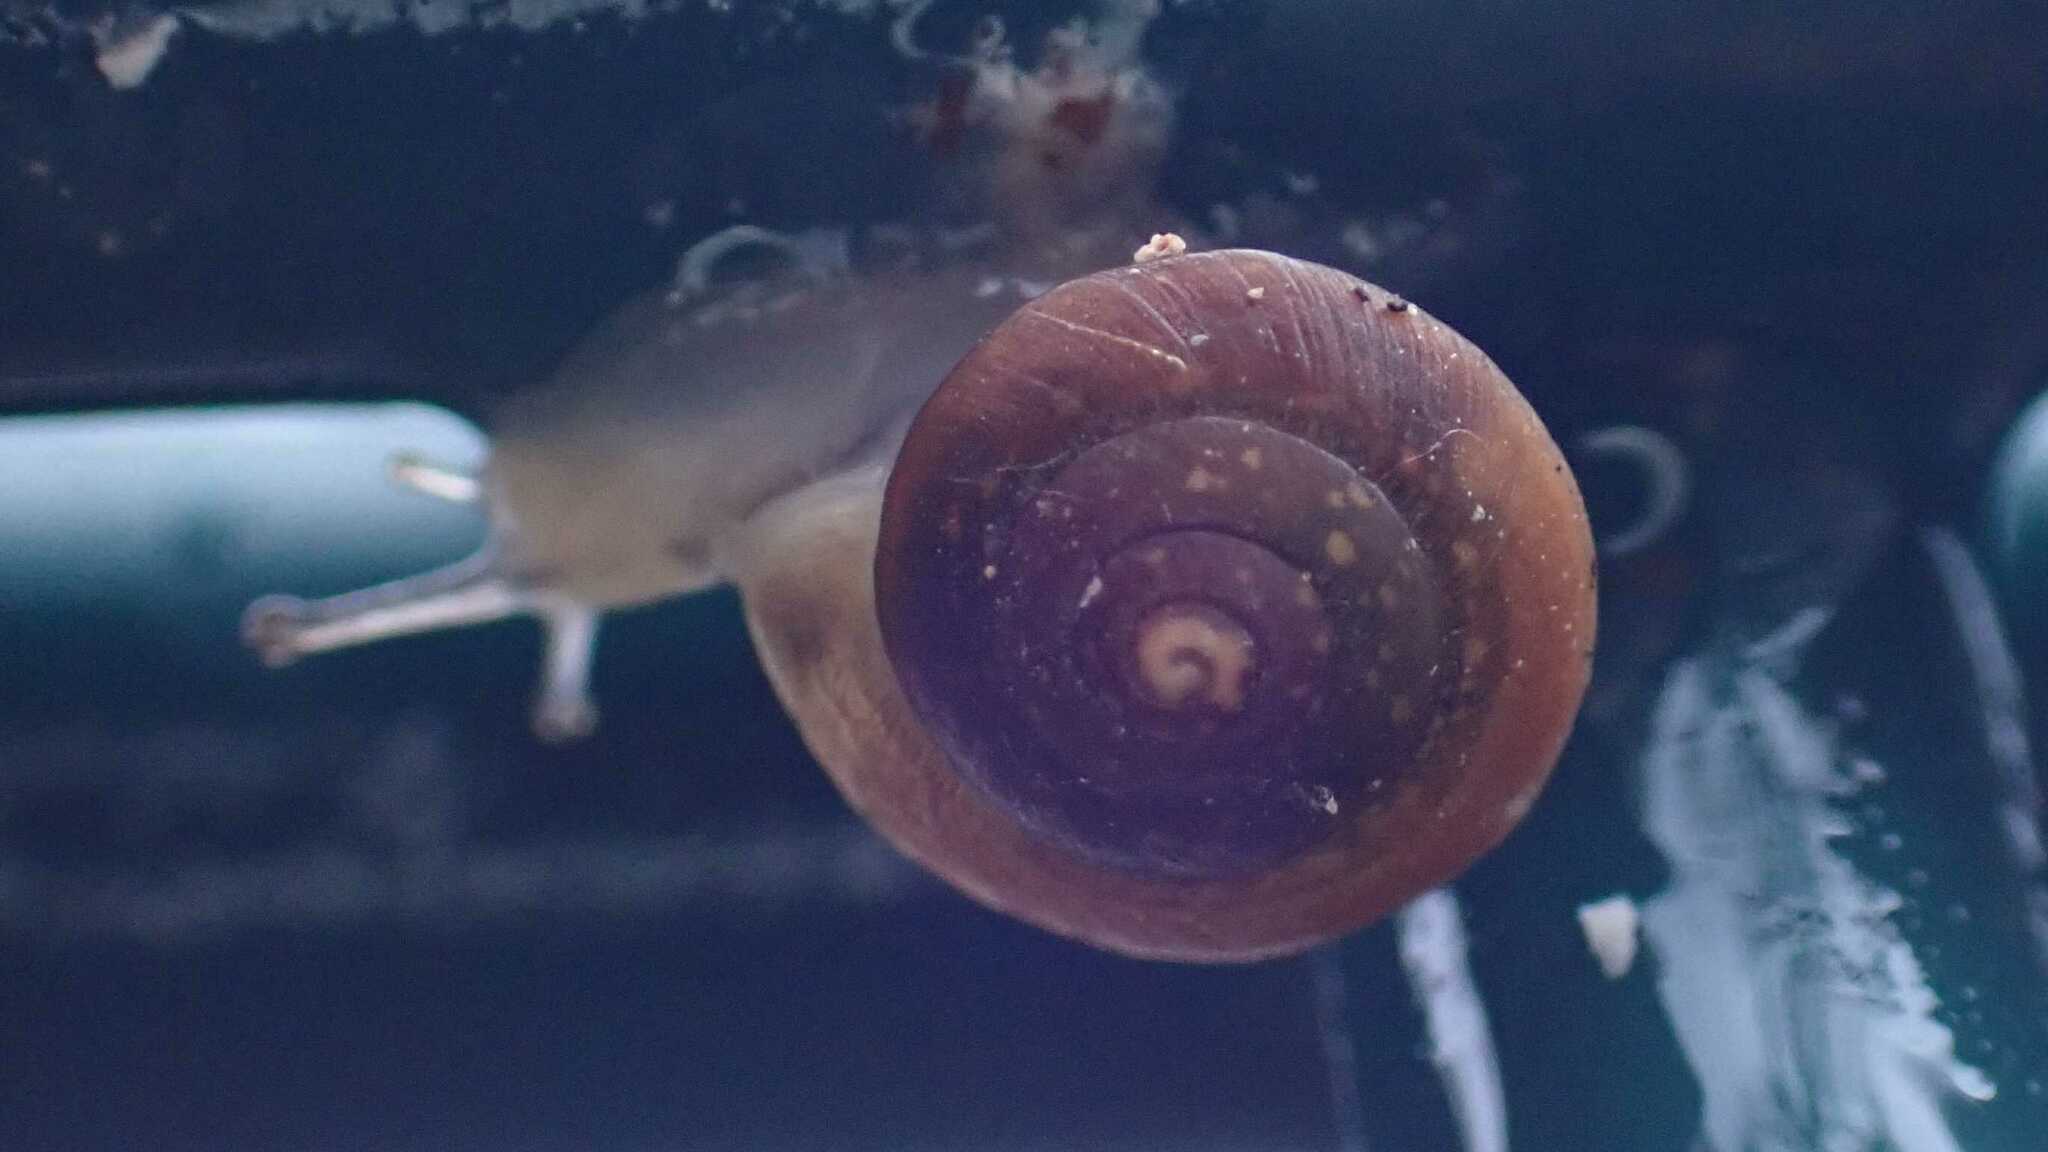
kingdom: Animalia
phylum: Mollusca
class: Gastropoda
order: Stylommatophora
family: Hygromiidae
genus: Hygromia
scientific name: Hygromia cinctella
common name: Girdled snail
